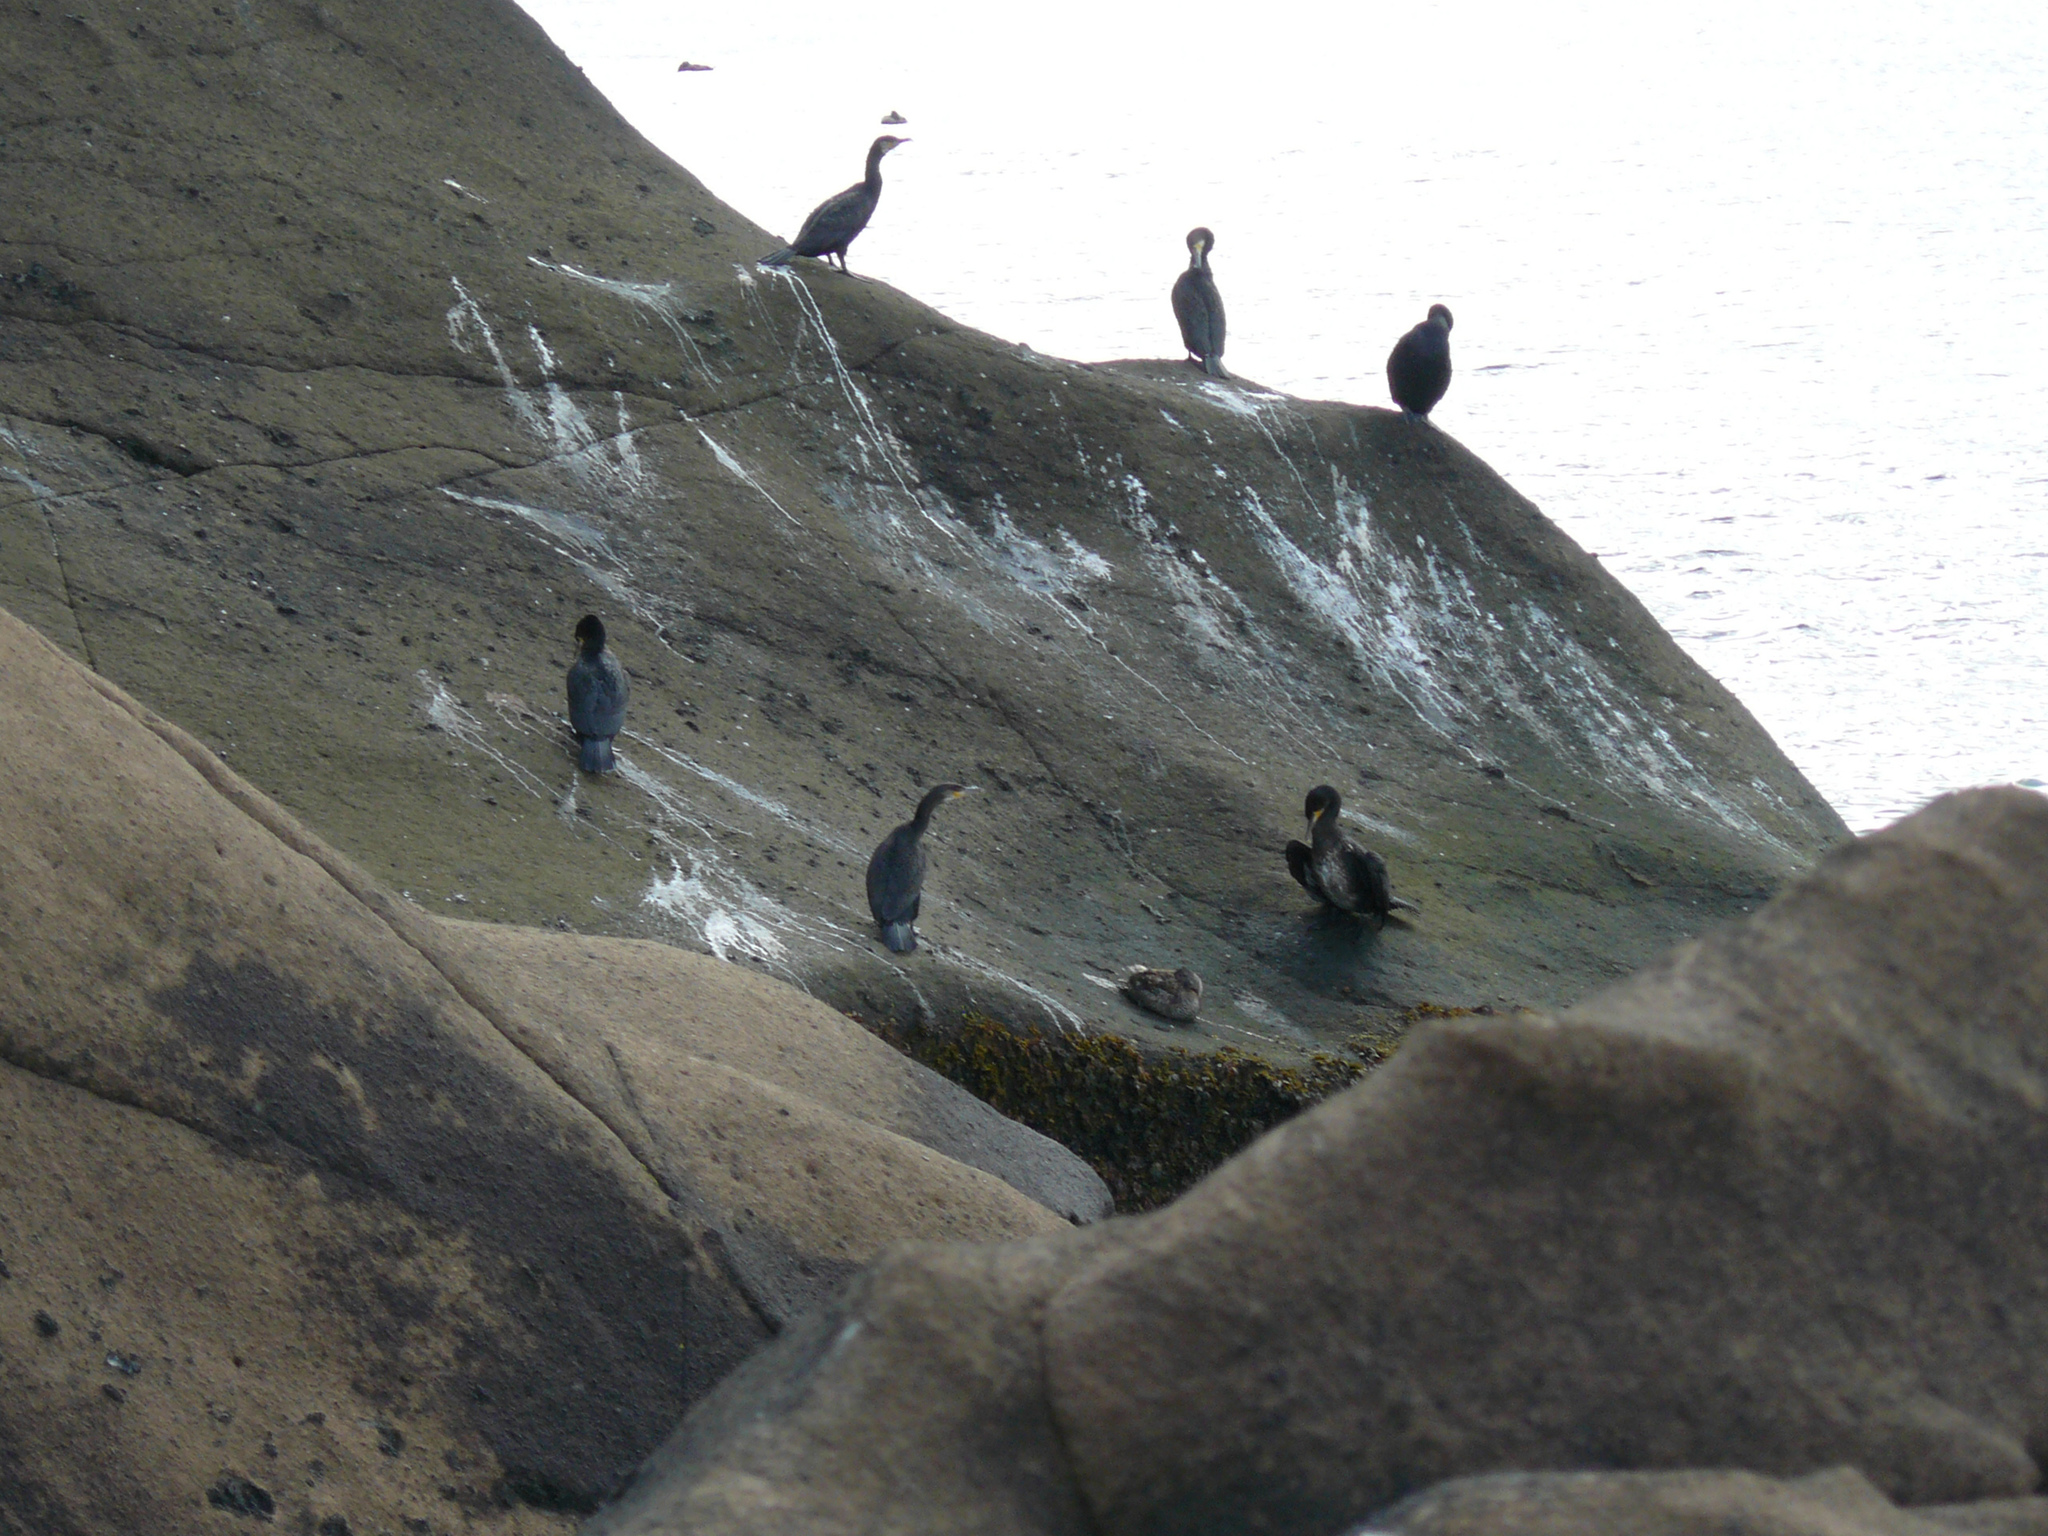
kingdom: Animalia
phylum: Chordata
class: Aves
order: Suliformes
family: Phalacrocoracidae
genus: Phalacrocorax
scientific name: Phalacrocorax carbo
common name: Great cormorant
